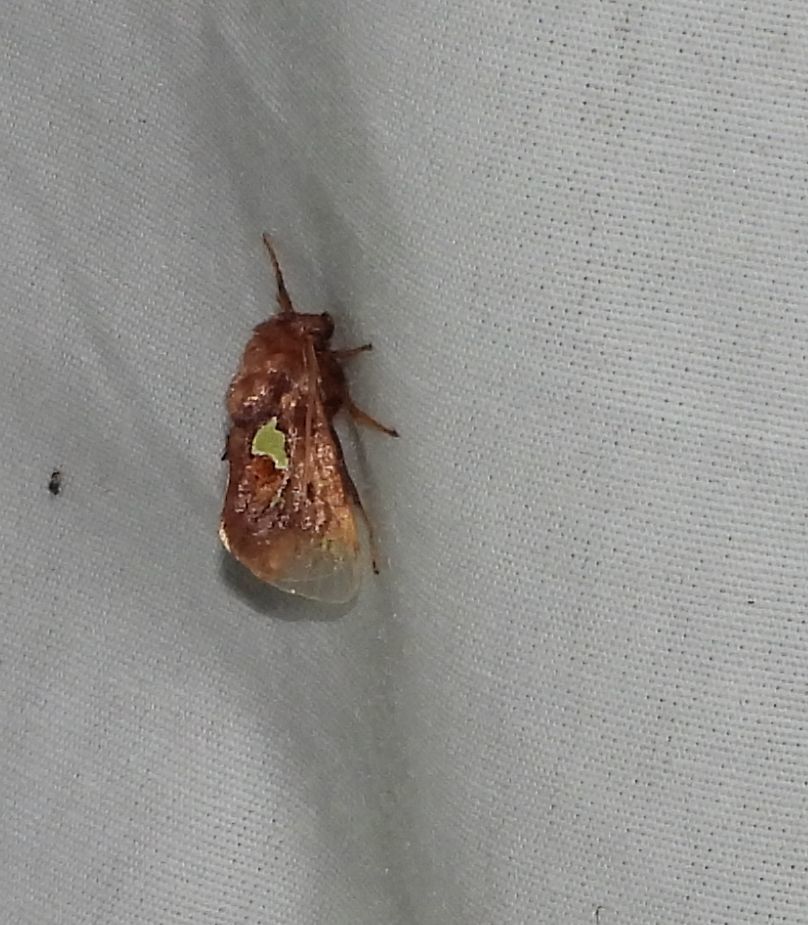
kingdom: Animalia
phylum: Arthropoda
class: Insecta
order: Lepidoptera
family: Limacodidae
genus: Euclea
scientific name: Euclea delphinii
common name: Spiny oak-slug moth
